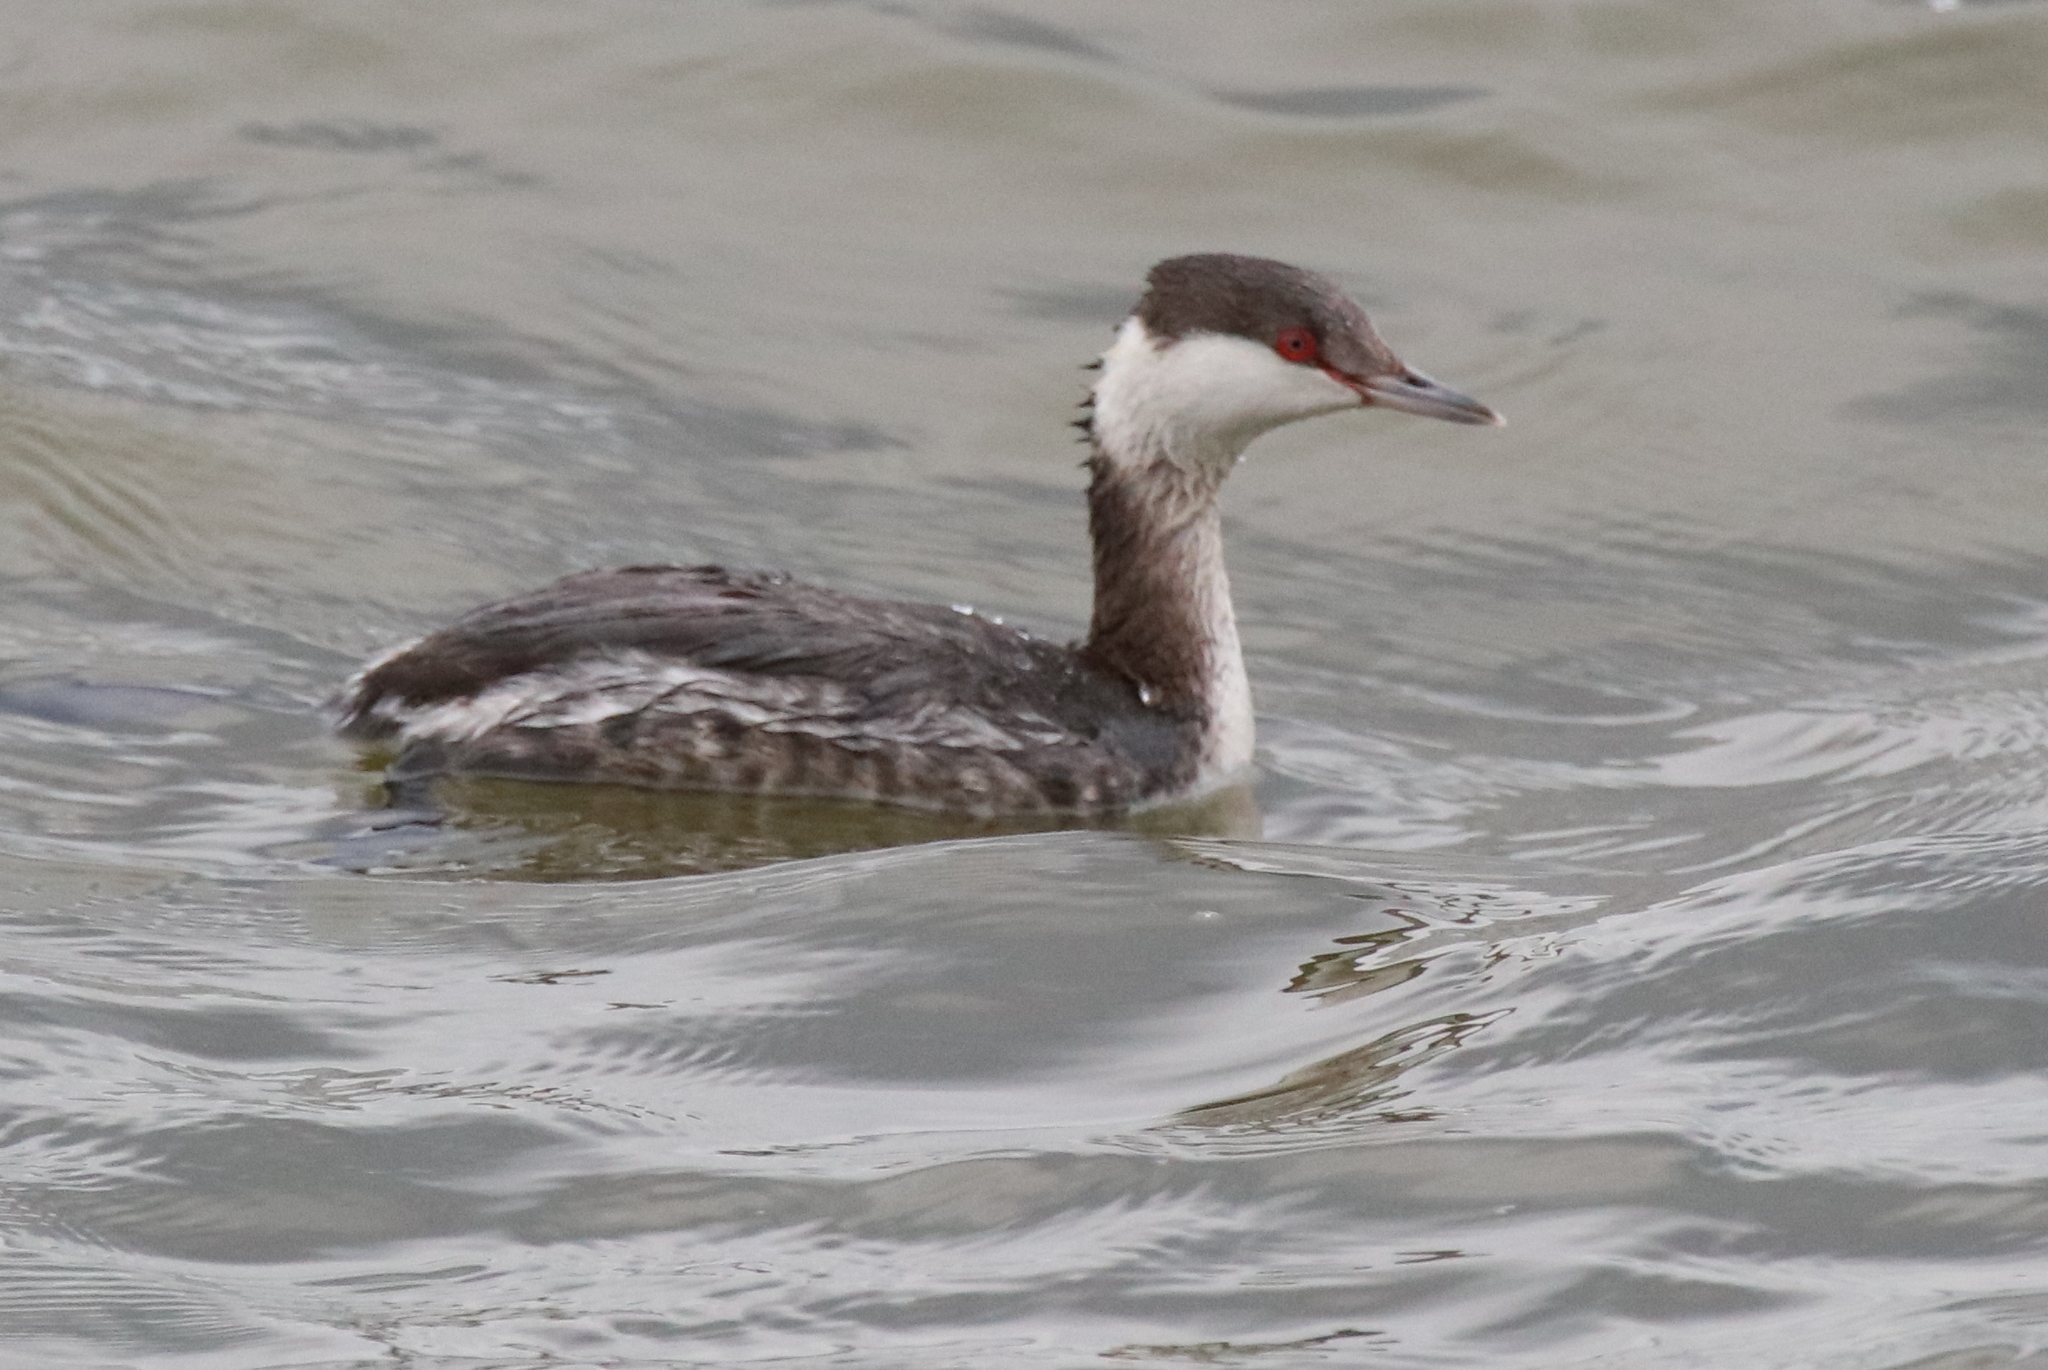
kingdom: Animalia
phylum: Chordata
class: Aves
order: Podicipediformes
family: Podicipedidae
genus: Podiceps
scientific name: Podiceps auritus
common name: Horned grebe
